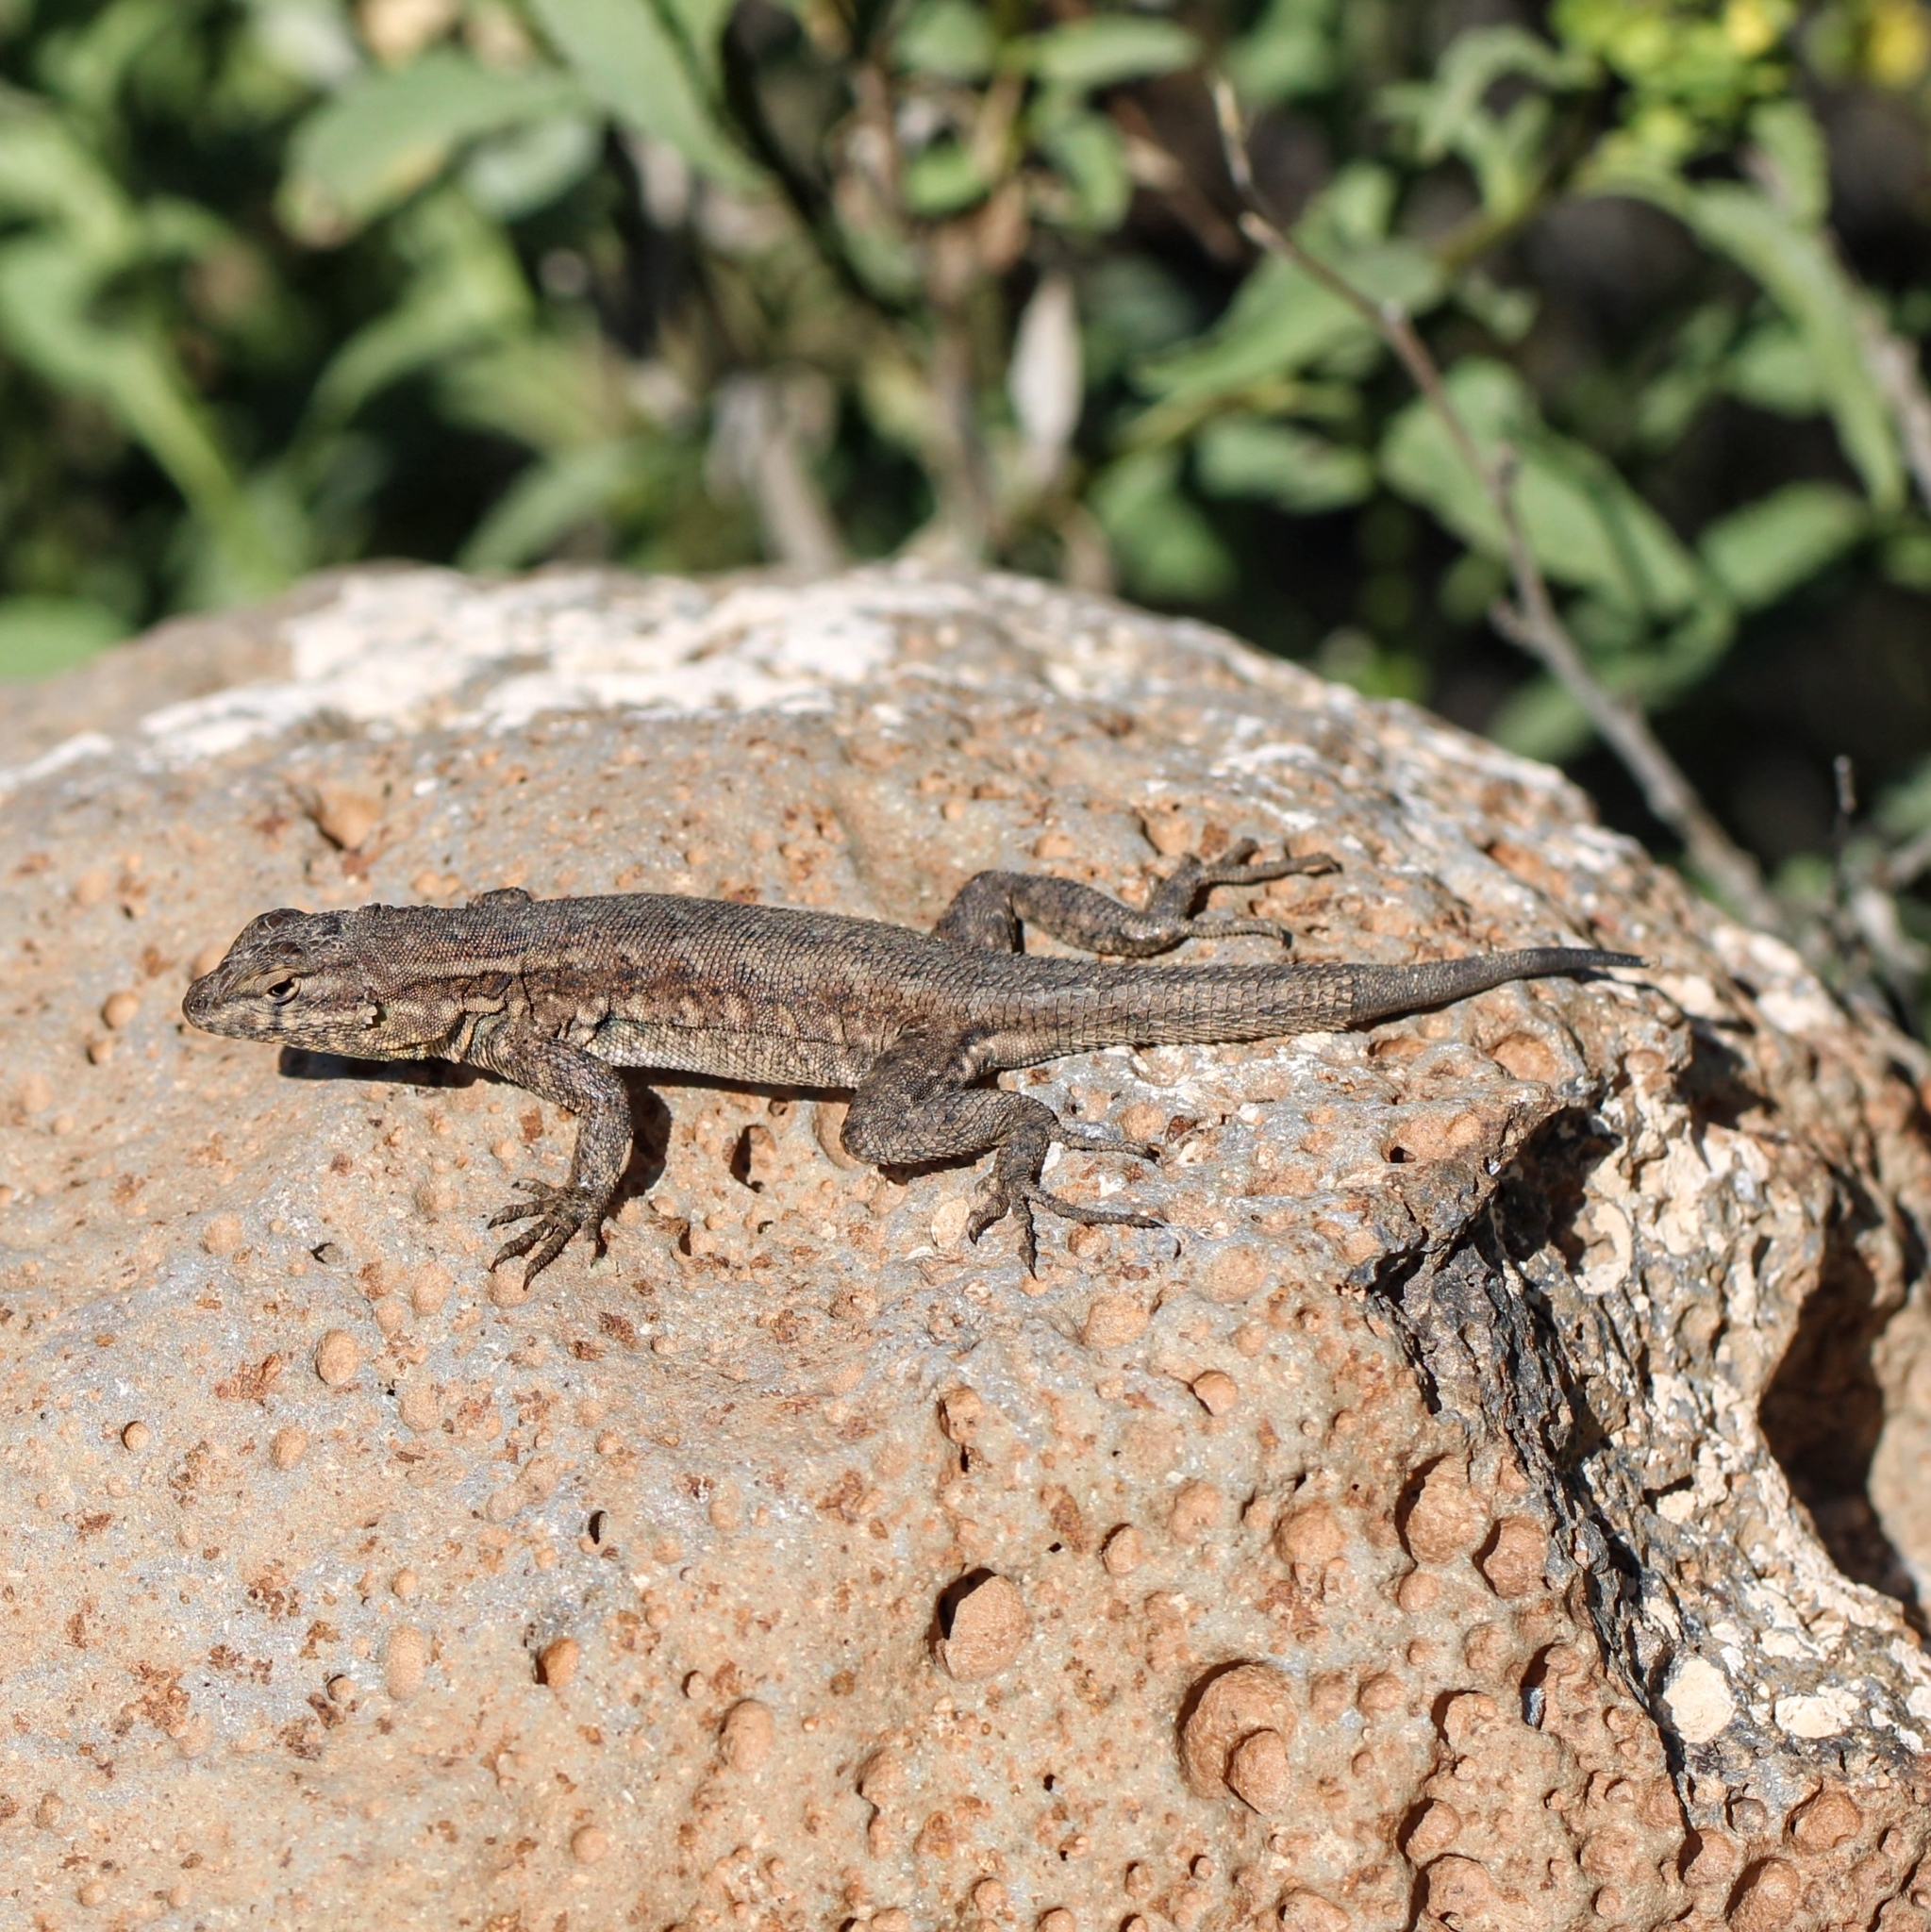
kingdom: Animalia
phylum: Chordata
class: Squamata
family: Phrynosomatidae
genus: Uta
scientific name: Uta stansburiana
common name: Side-blotched lizard
